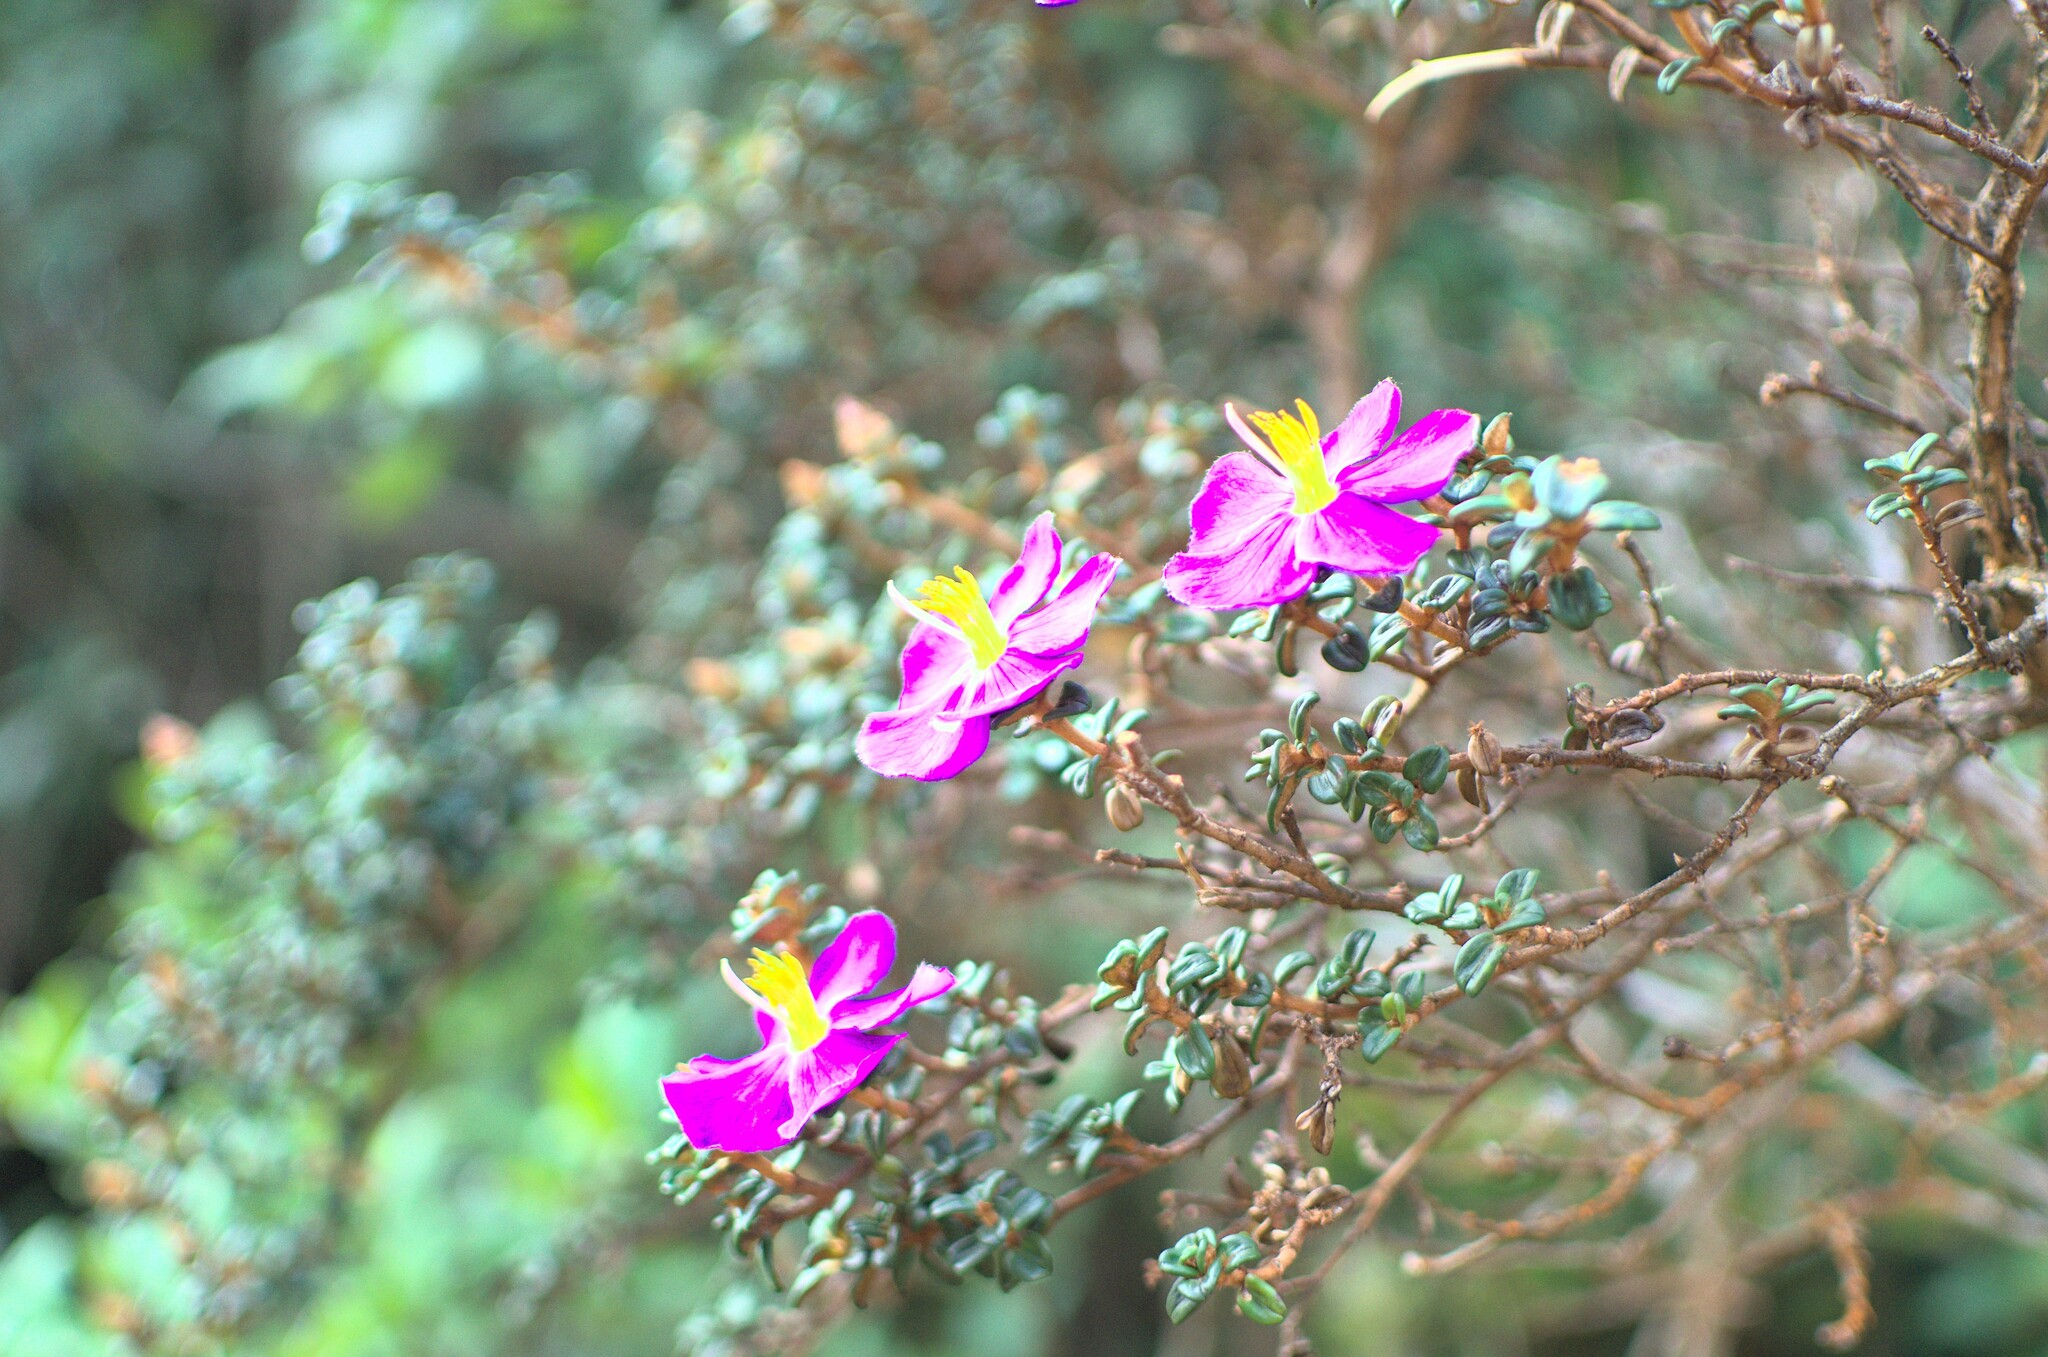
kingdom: Plantae
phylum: Tracheophyta
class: Magnoliopsida
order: Myrtales
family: Melastomataceae
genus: Osbeckia
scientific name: Osbeckia lanata
